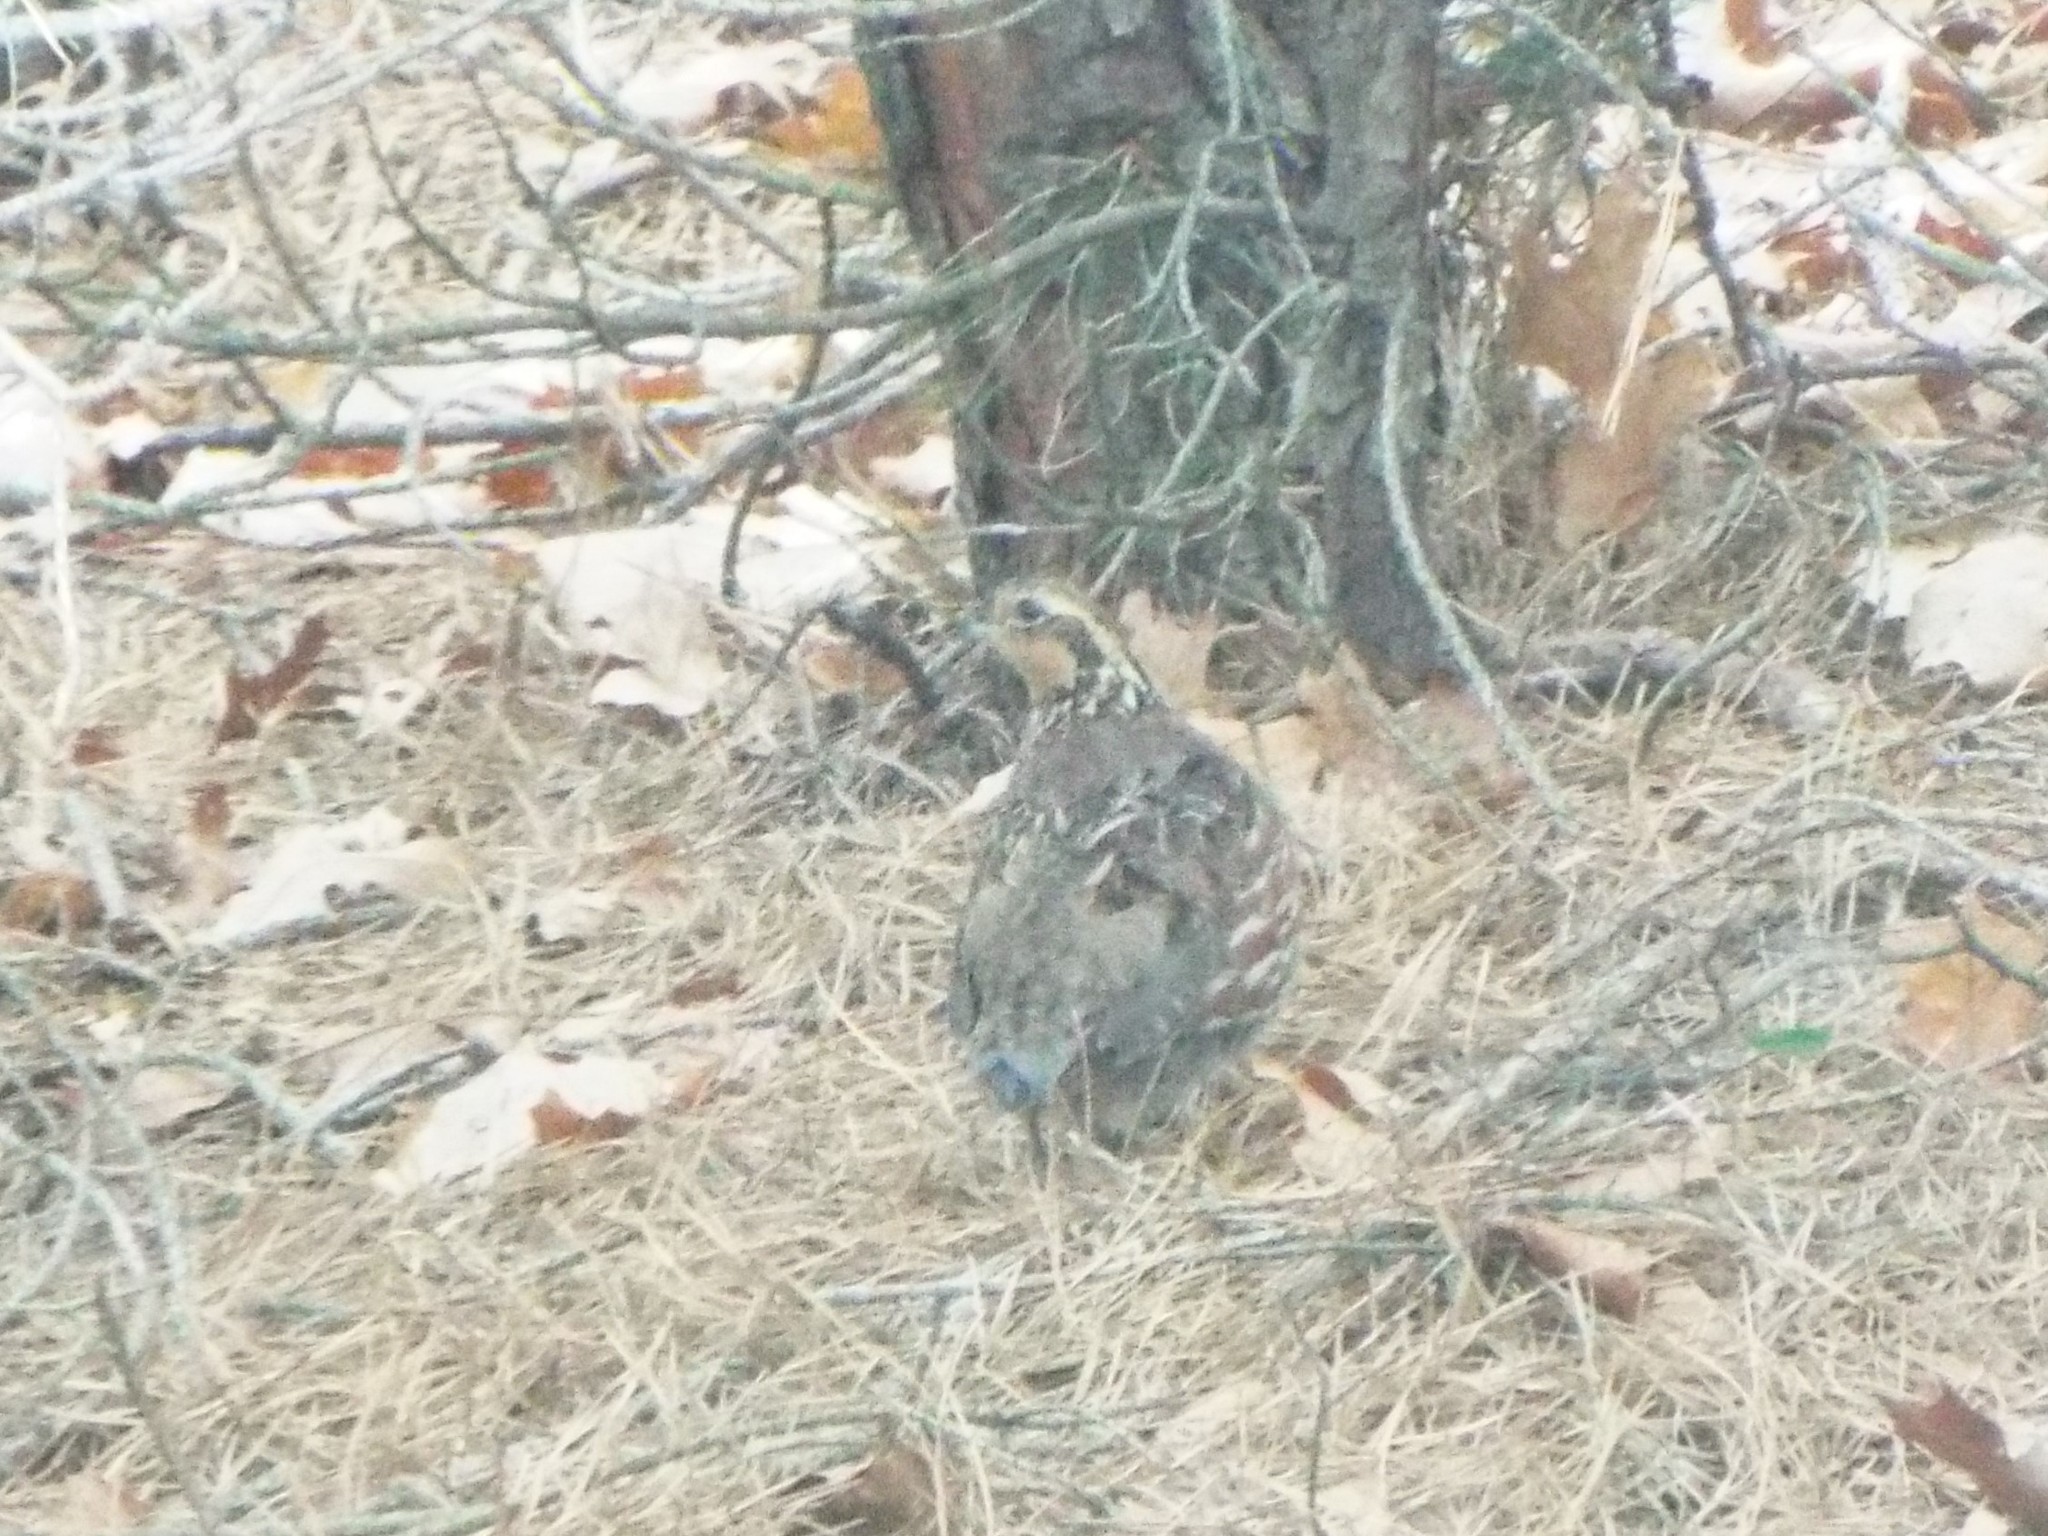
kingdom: Animalia
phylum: Chordata
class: Aves
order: Galliformes
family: Odontophoridae
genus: Colinus
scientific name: Colinus virginianus
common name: Northern bobwhite
